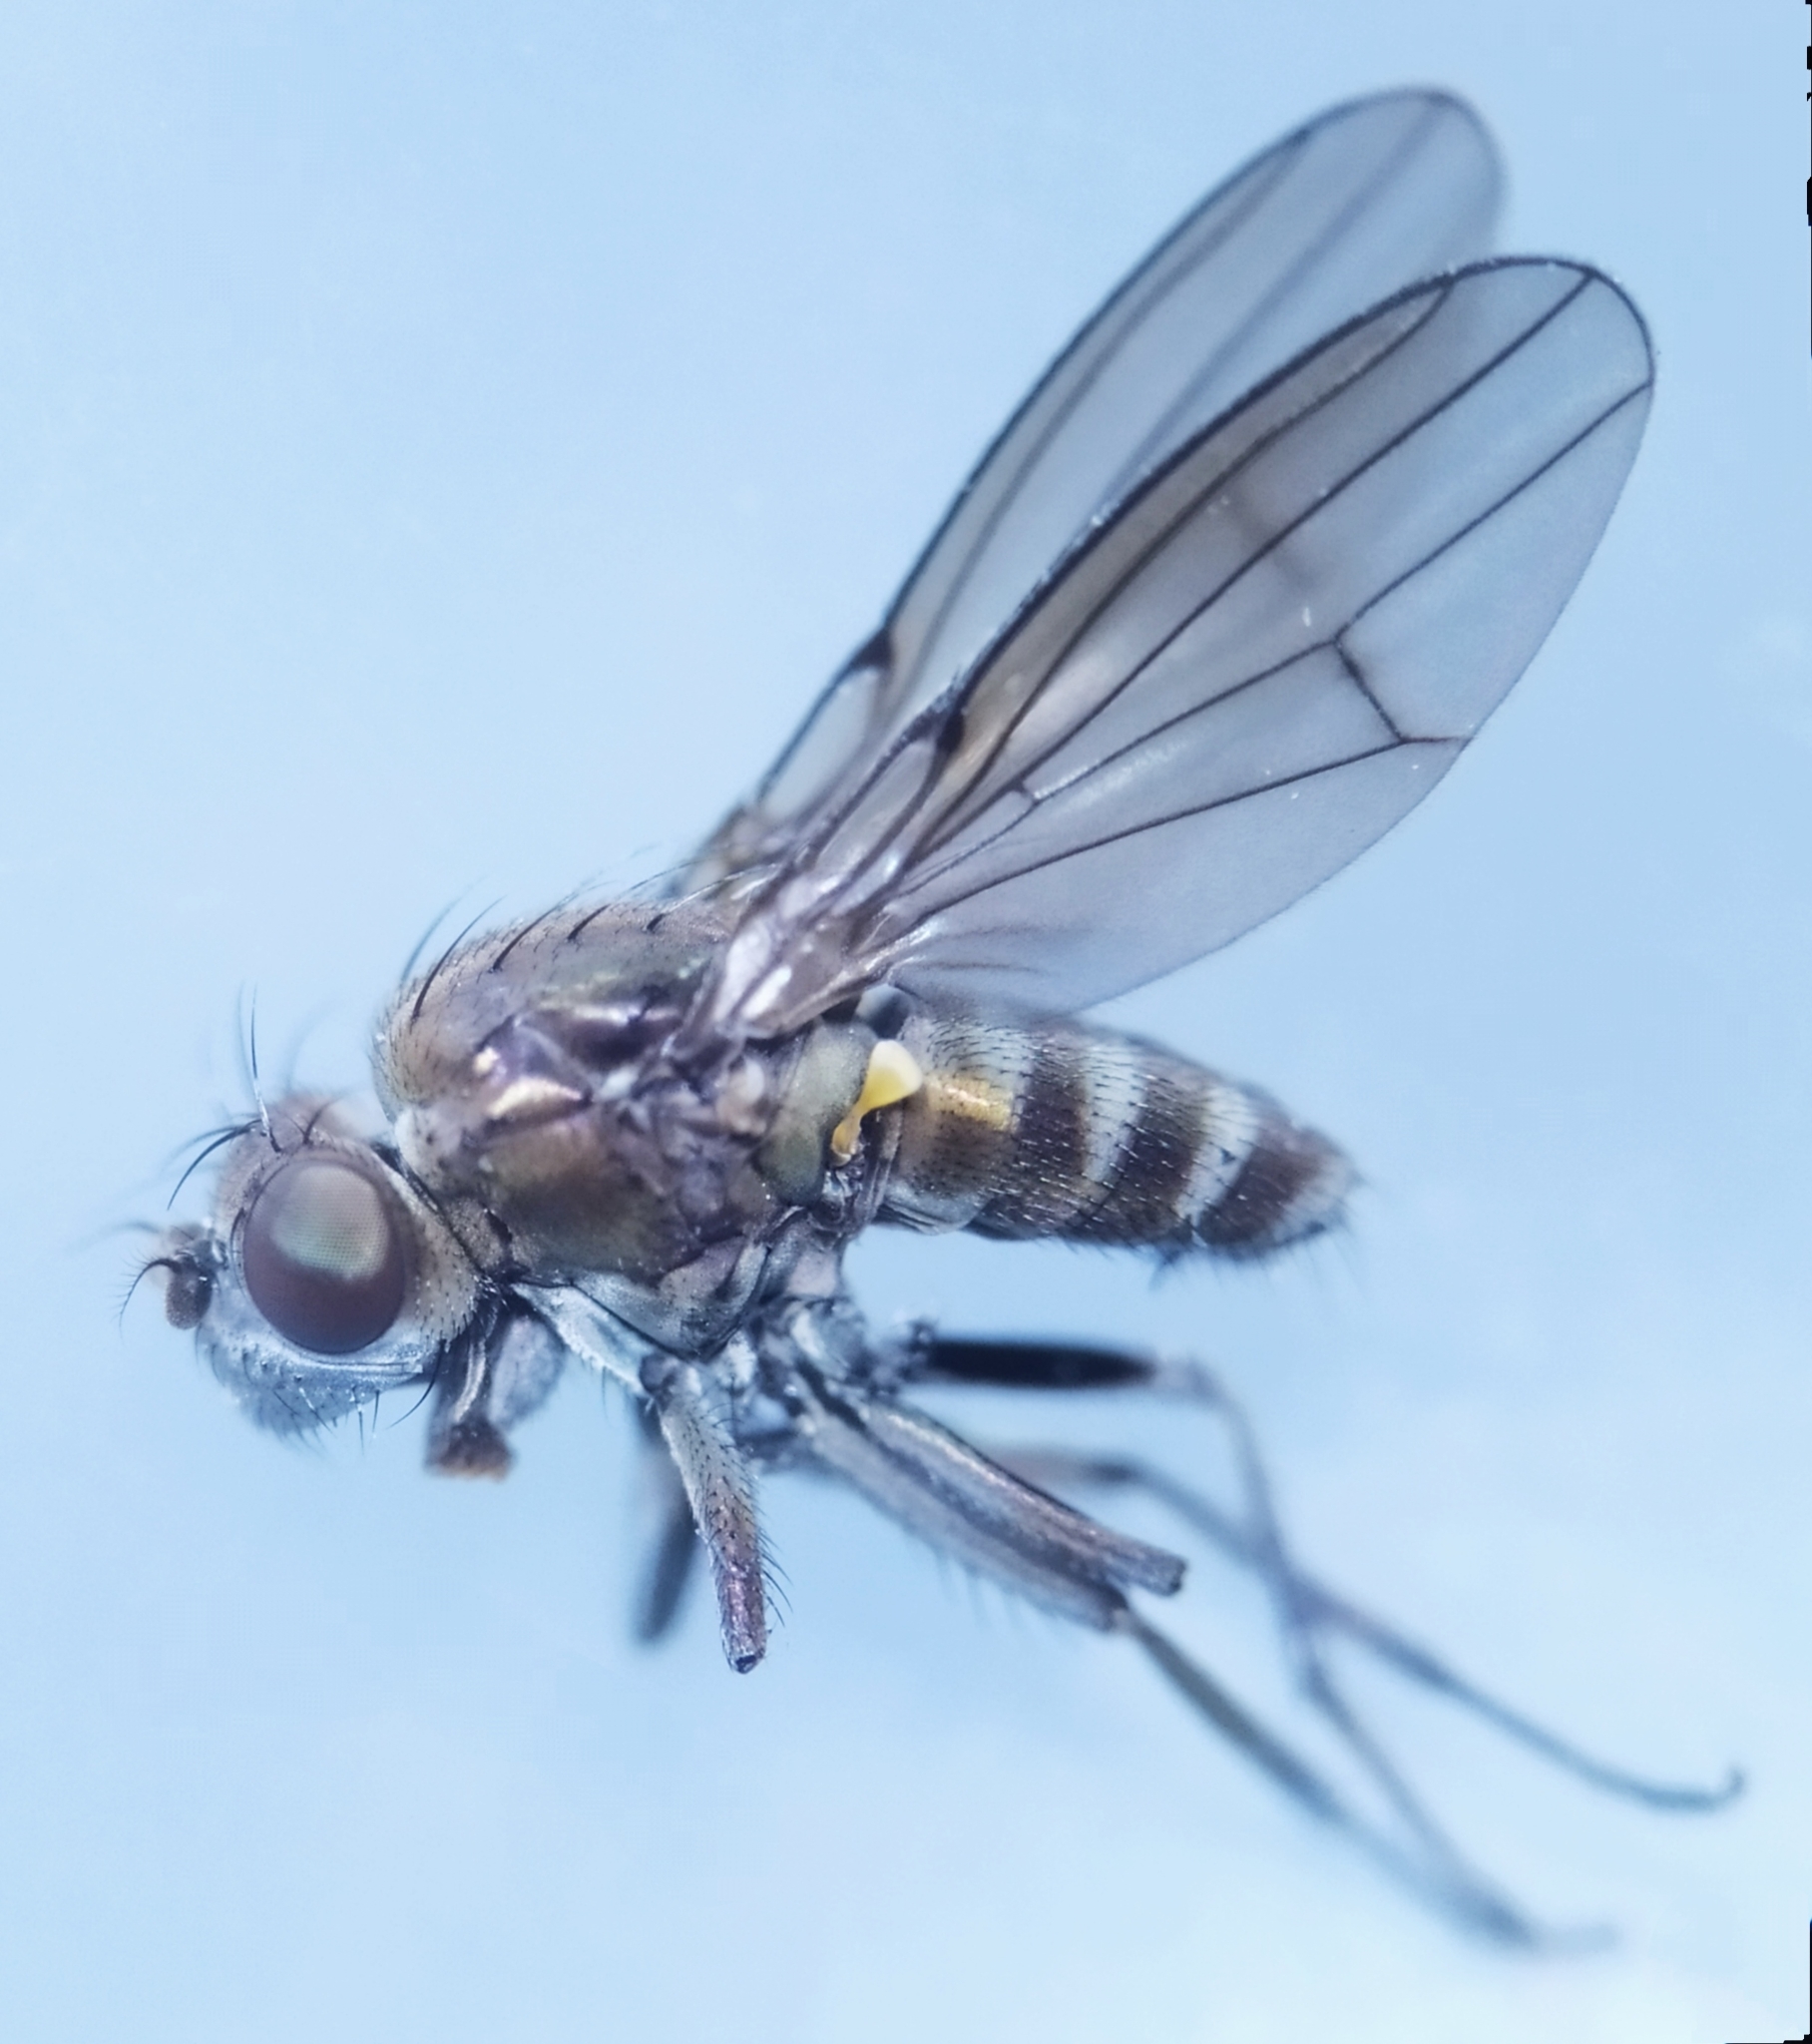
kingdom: Animalia
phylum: Arthropoda
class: Insecta
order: Diptera
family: Ephydridae
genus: Paracoenia
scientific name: Paracoenia fumosa
